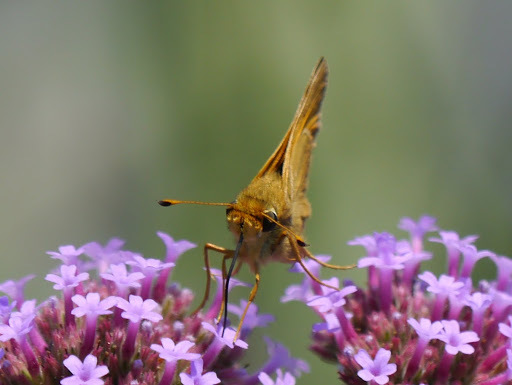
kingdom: Animalia
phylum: Arthropoda
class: Insecta
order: Lepidoptera
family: Hesperiidae
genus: Atalopedes
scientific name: Atalopedes
